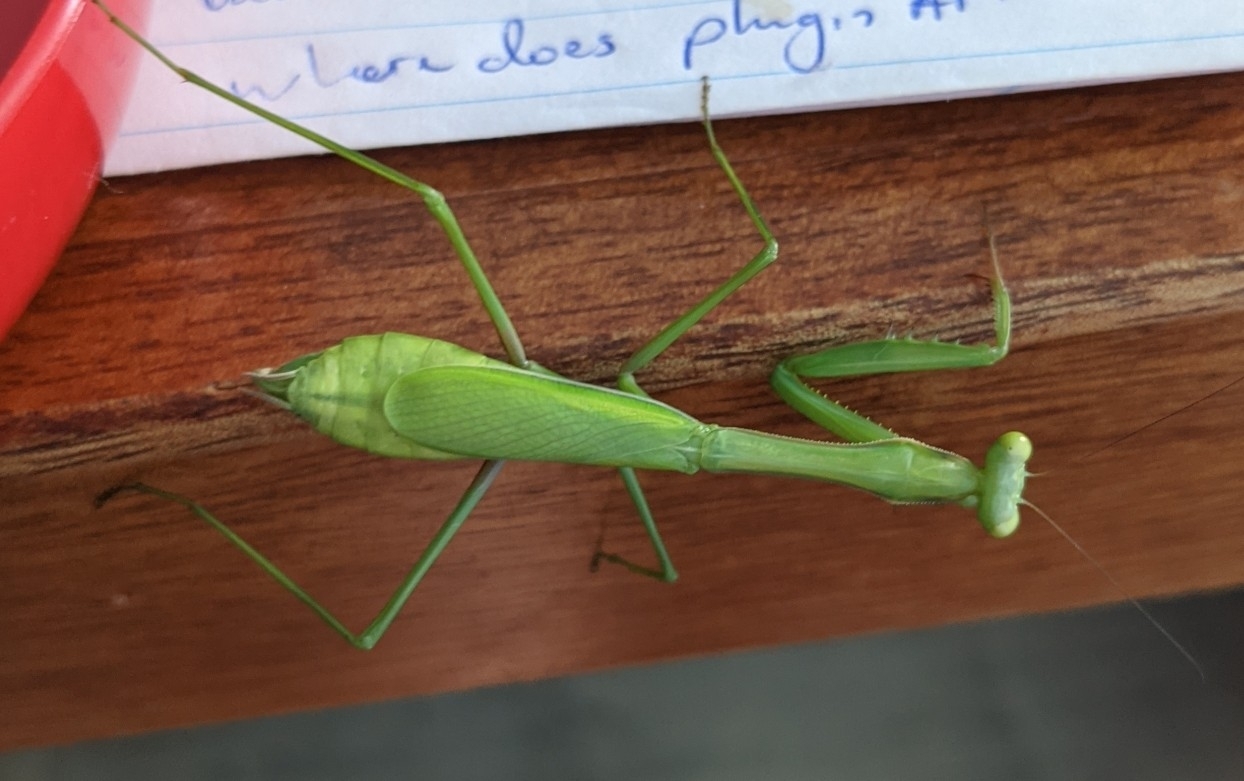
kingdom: Animalia
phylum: Arthropoda
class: Insecta
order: Mantodea
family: Mantidae
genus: Pseudomantis
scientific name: Pseudomantis albofimbriata
